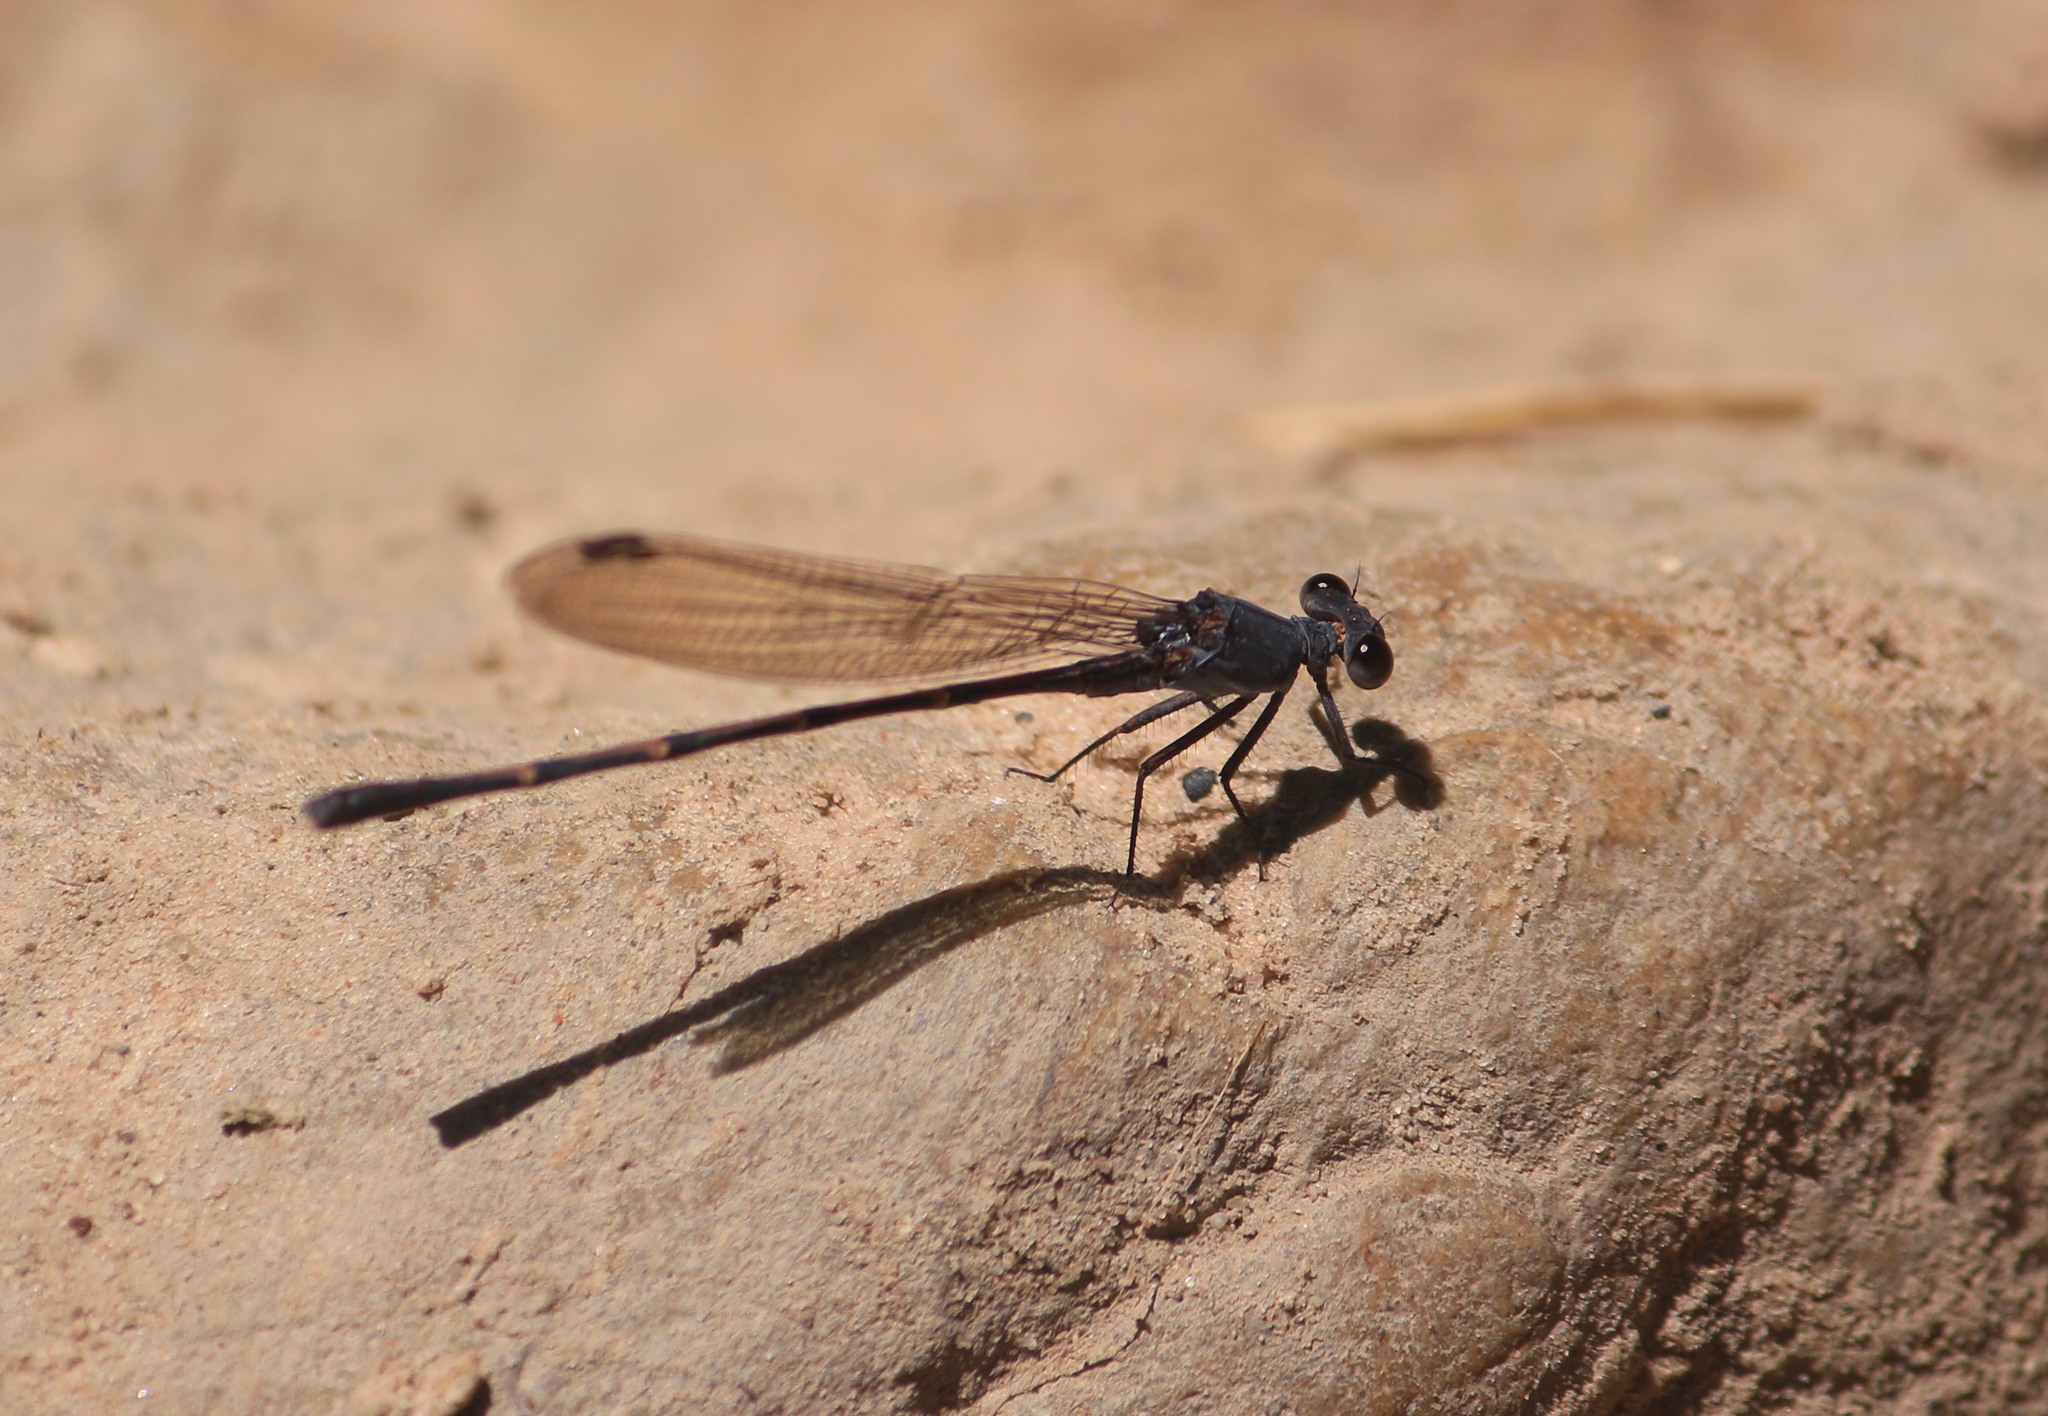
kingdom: Animalia
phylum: Arthropoda
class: Insecta
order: Odonata
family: Coenagrionidae
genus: Argia
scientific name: Argia lugens
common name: Sooty dancer
